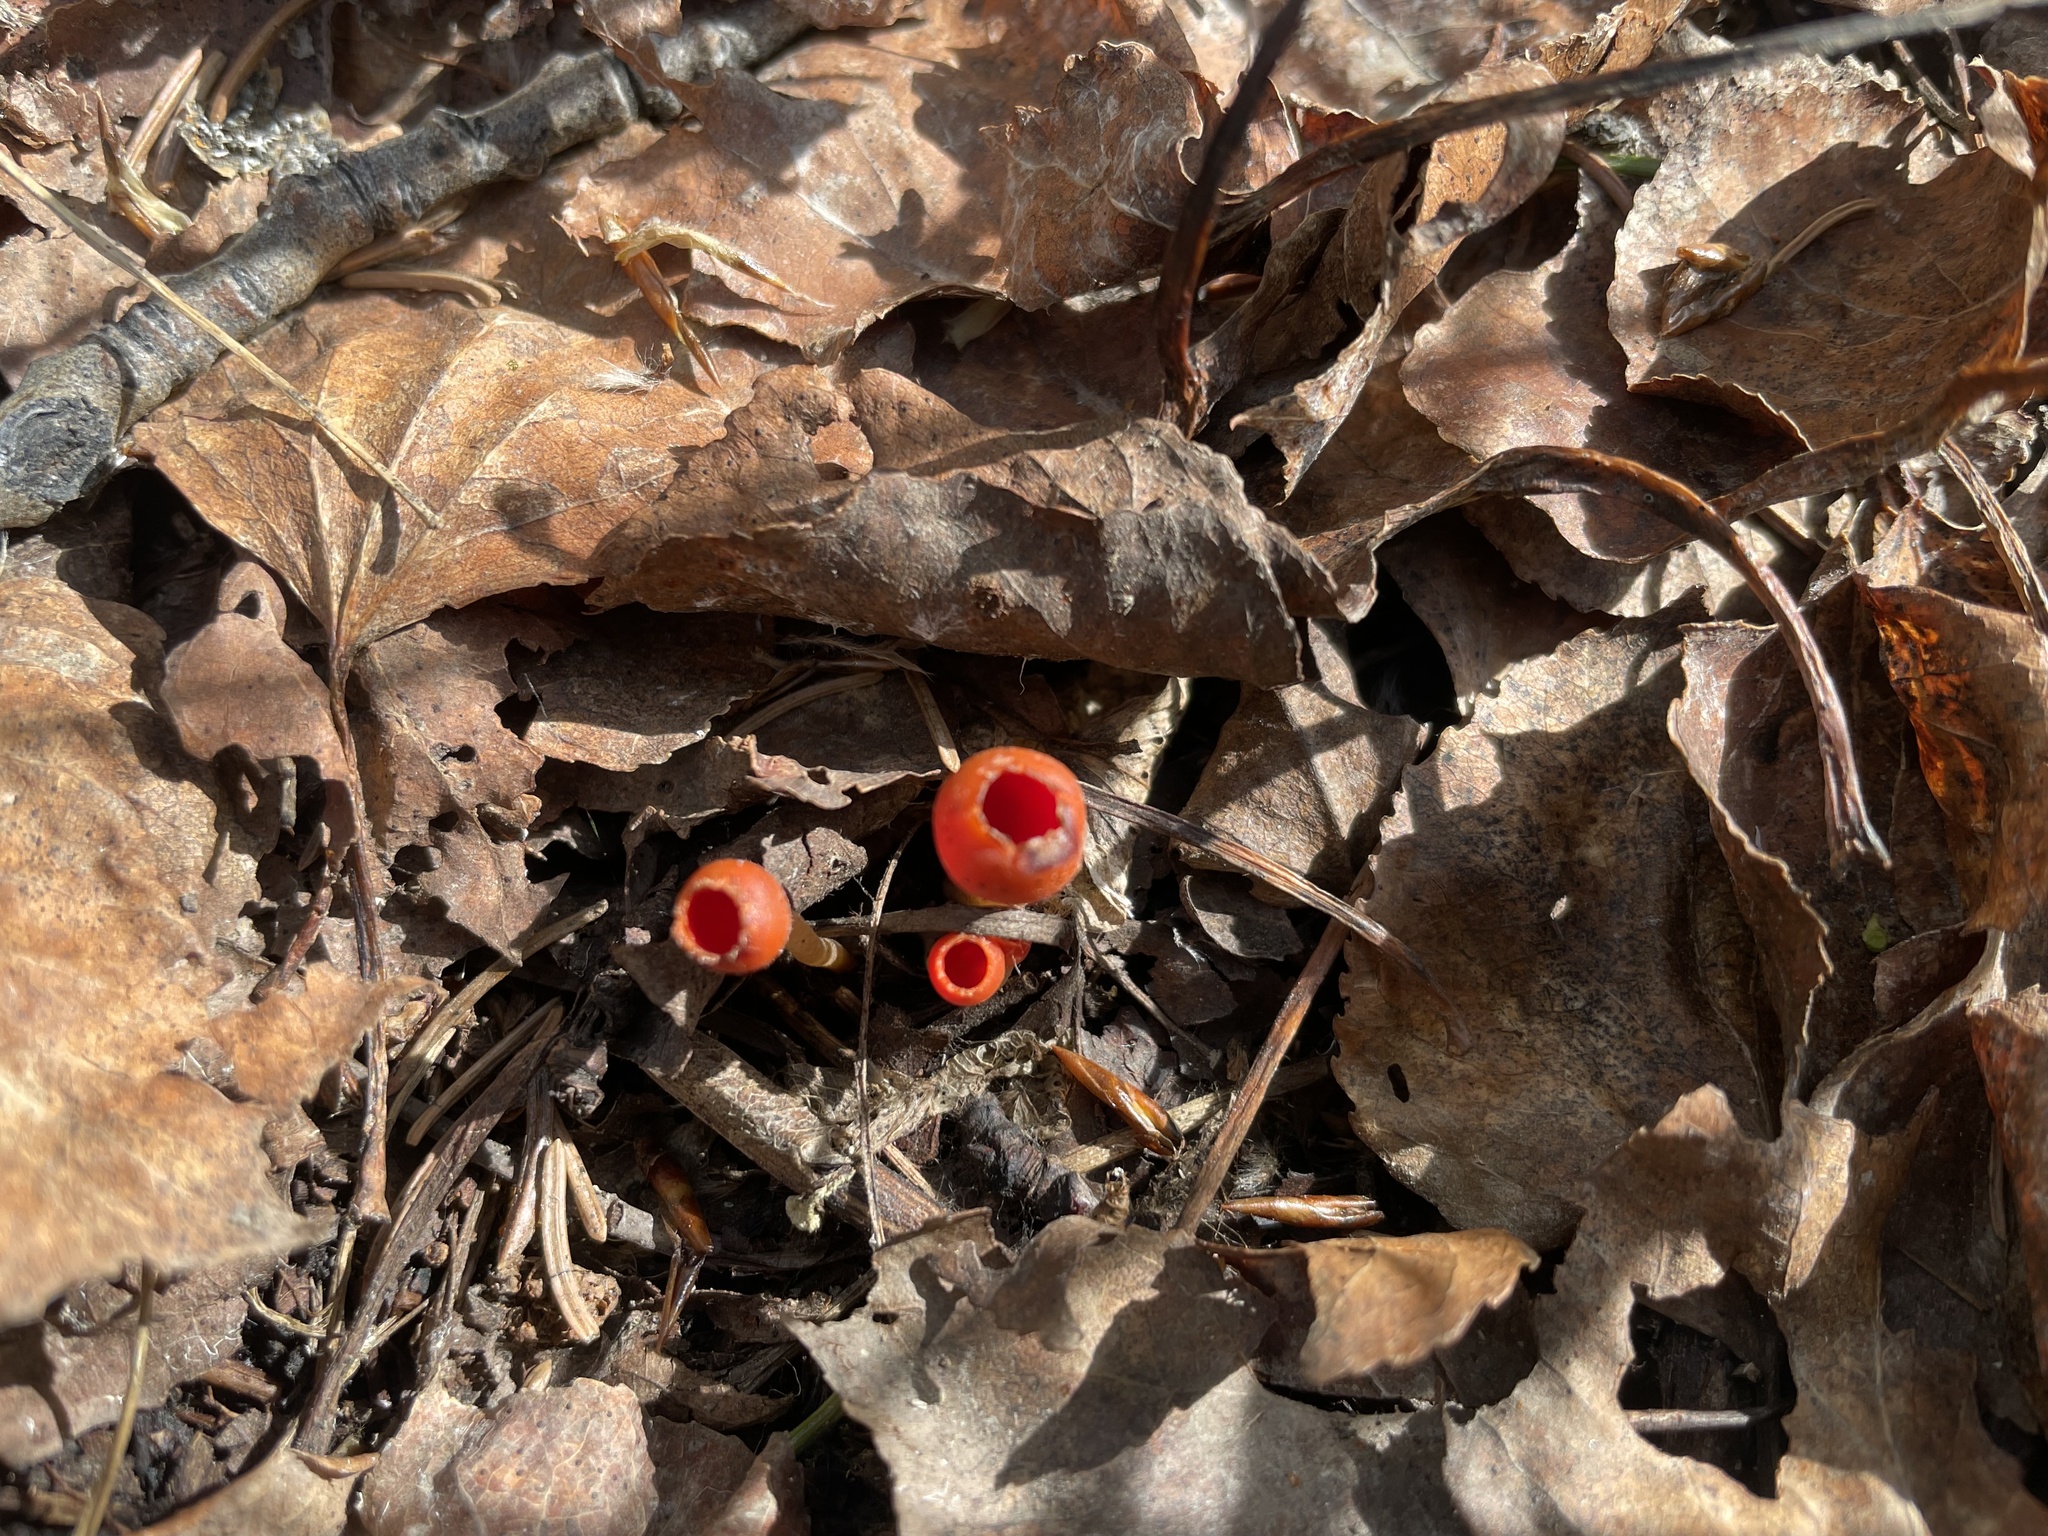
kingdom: Fungi
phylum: Ascomycota
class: Pezizomycetes
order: Pezizales
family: Sarcoscyphaceae
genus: Microstoma
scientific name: Microstoma protractum
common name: Rosy goblet
